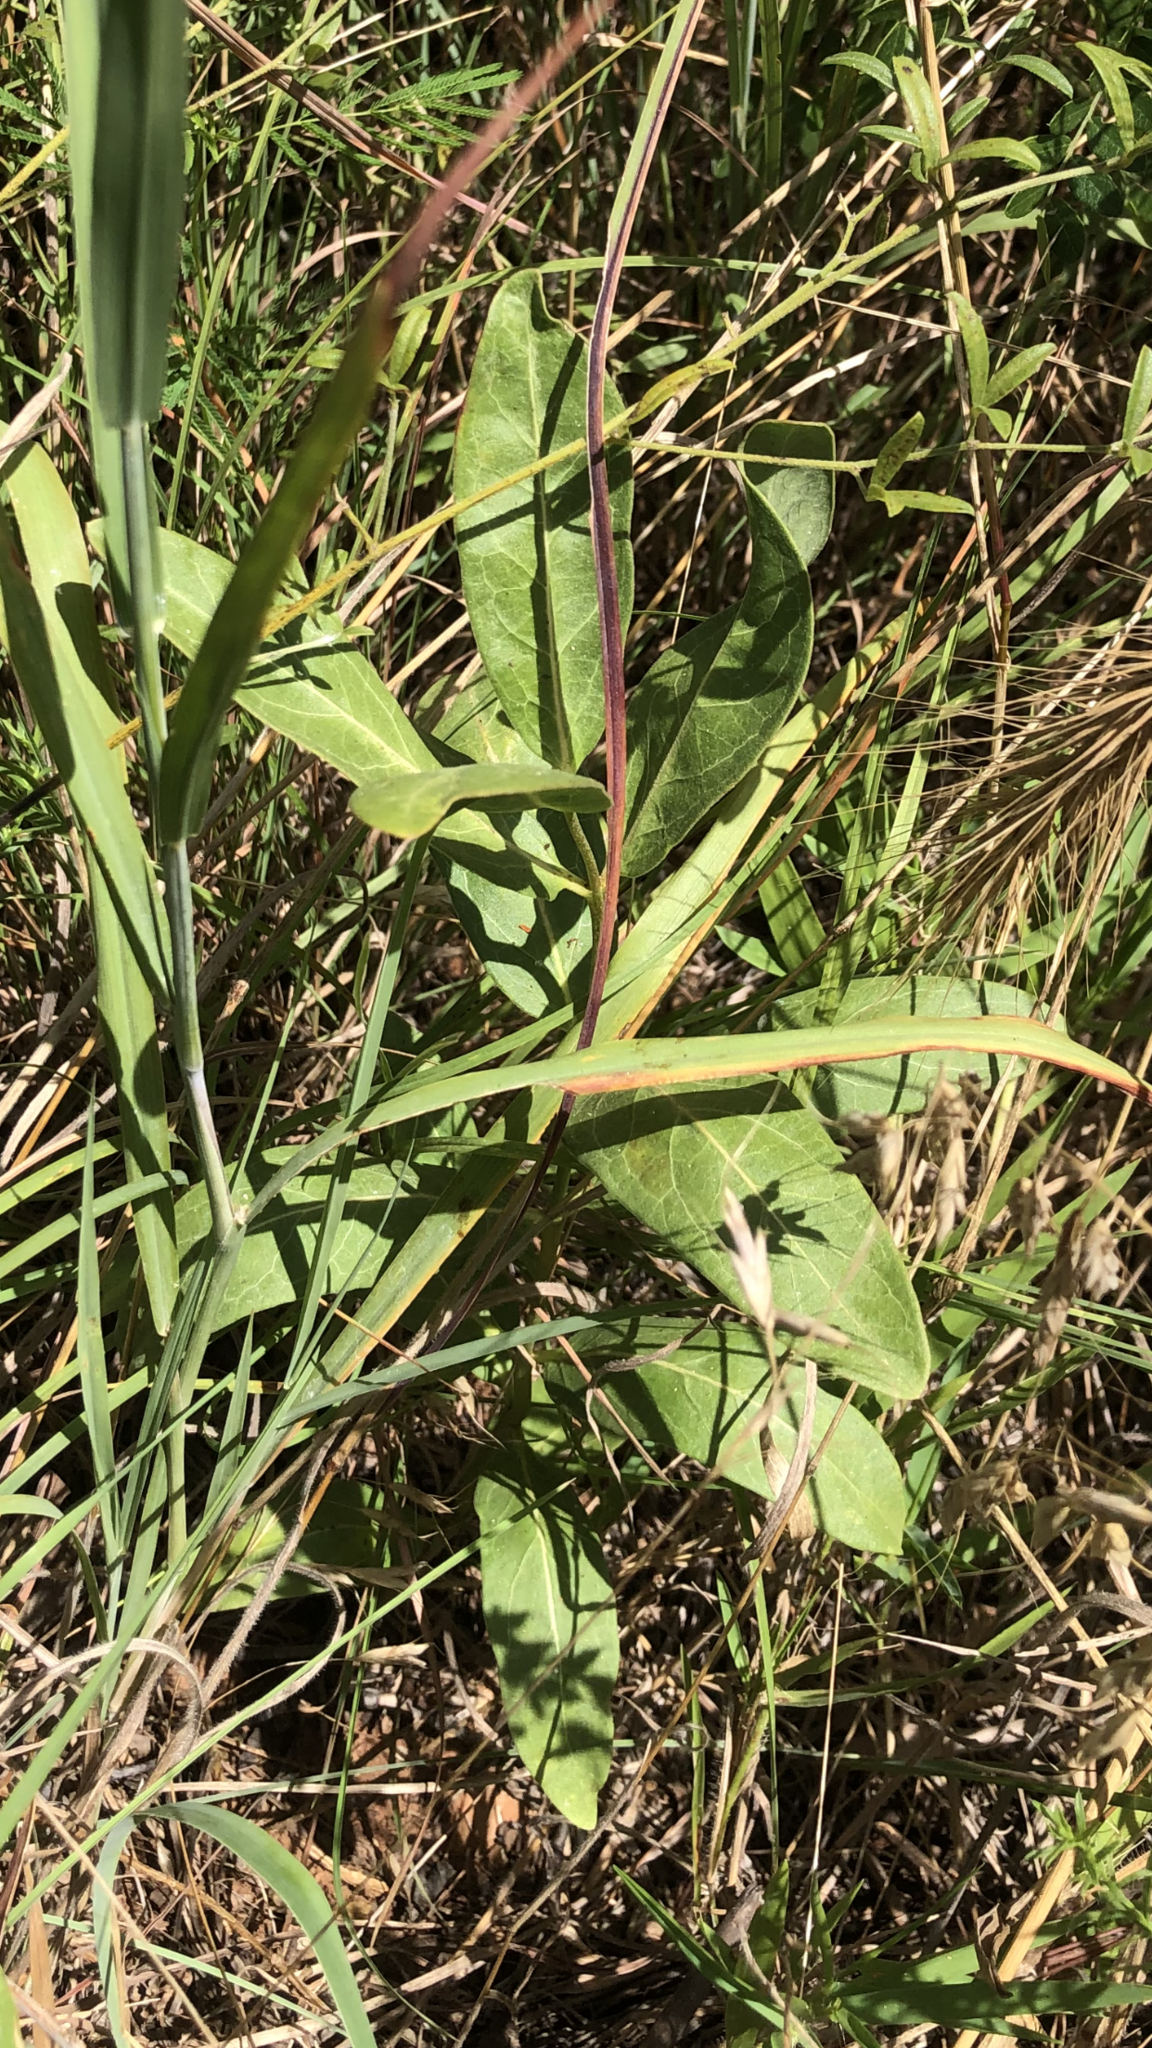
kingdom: Plantae
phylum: Tracheophyta
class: Magnoliopsida
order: Gentianales
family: Apocynaceae
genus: Asclepias
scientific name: Asclepias viridis
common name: Antelope-horns
